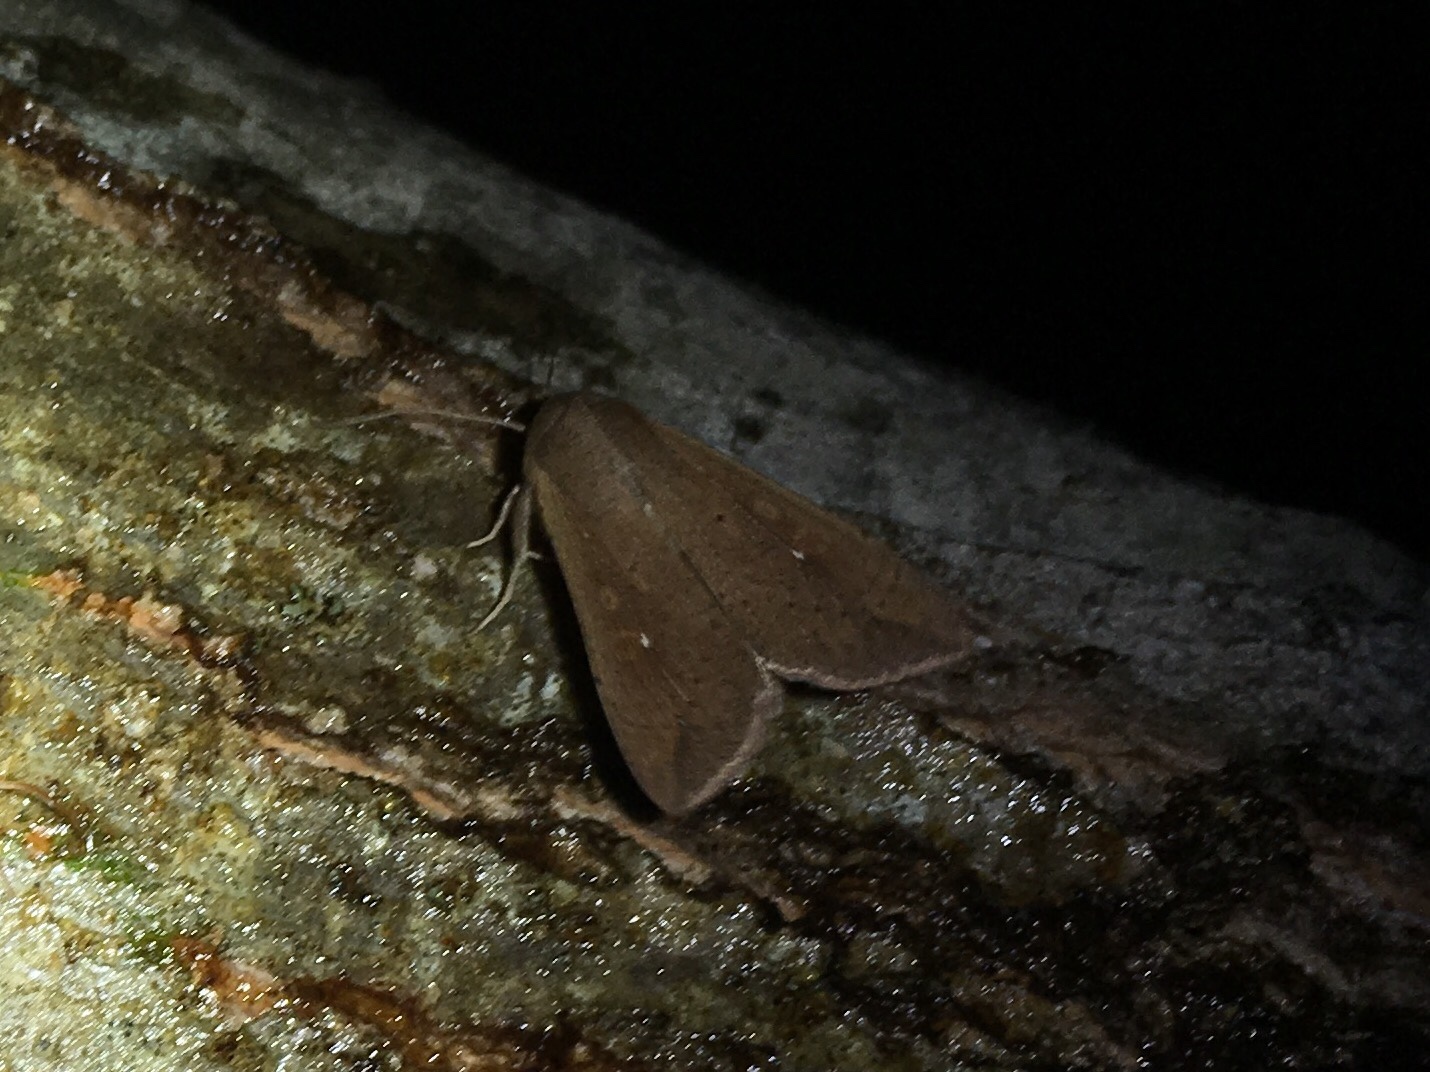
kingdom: Animalia
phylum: Arthropoda
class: Insecta
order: Lepidoptera
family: Noctuidae
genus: Mythimna
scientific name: Mythimna unipuncta
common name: White-speck
